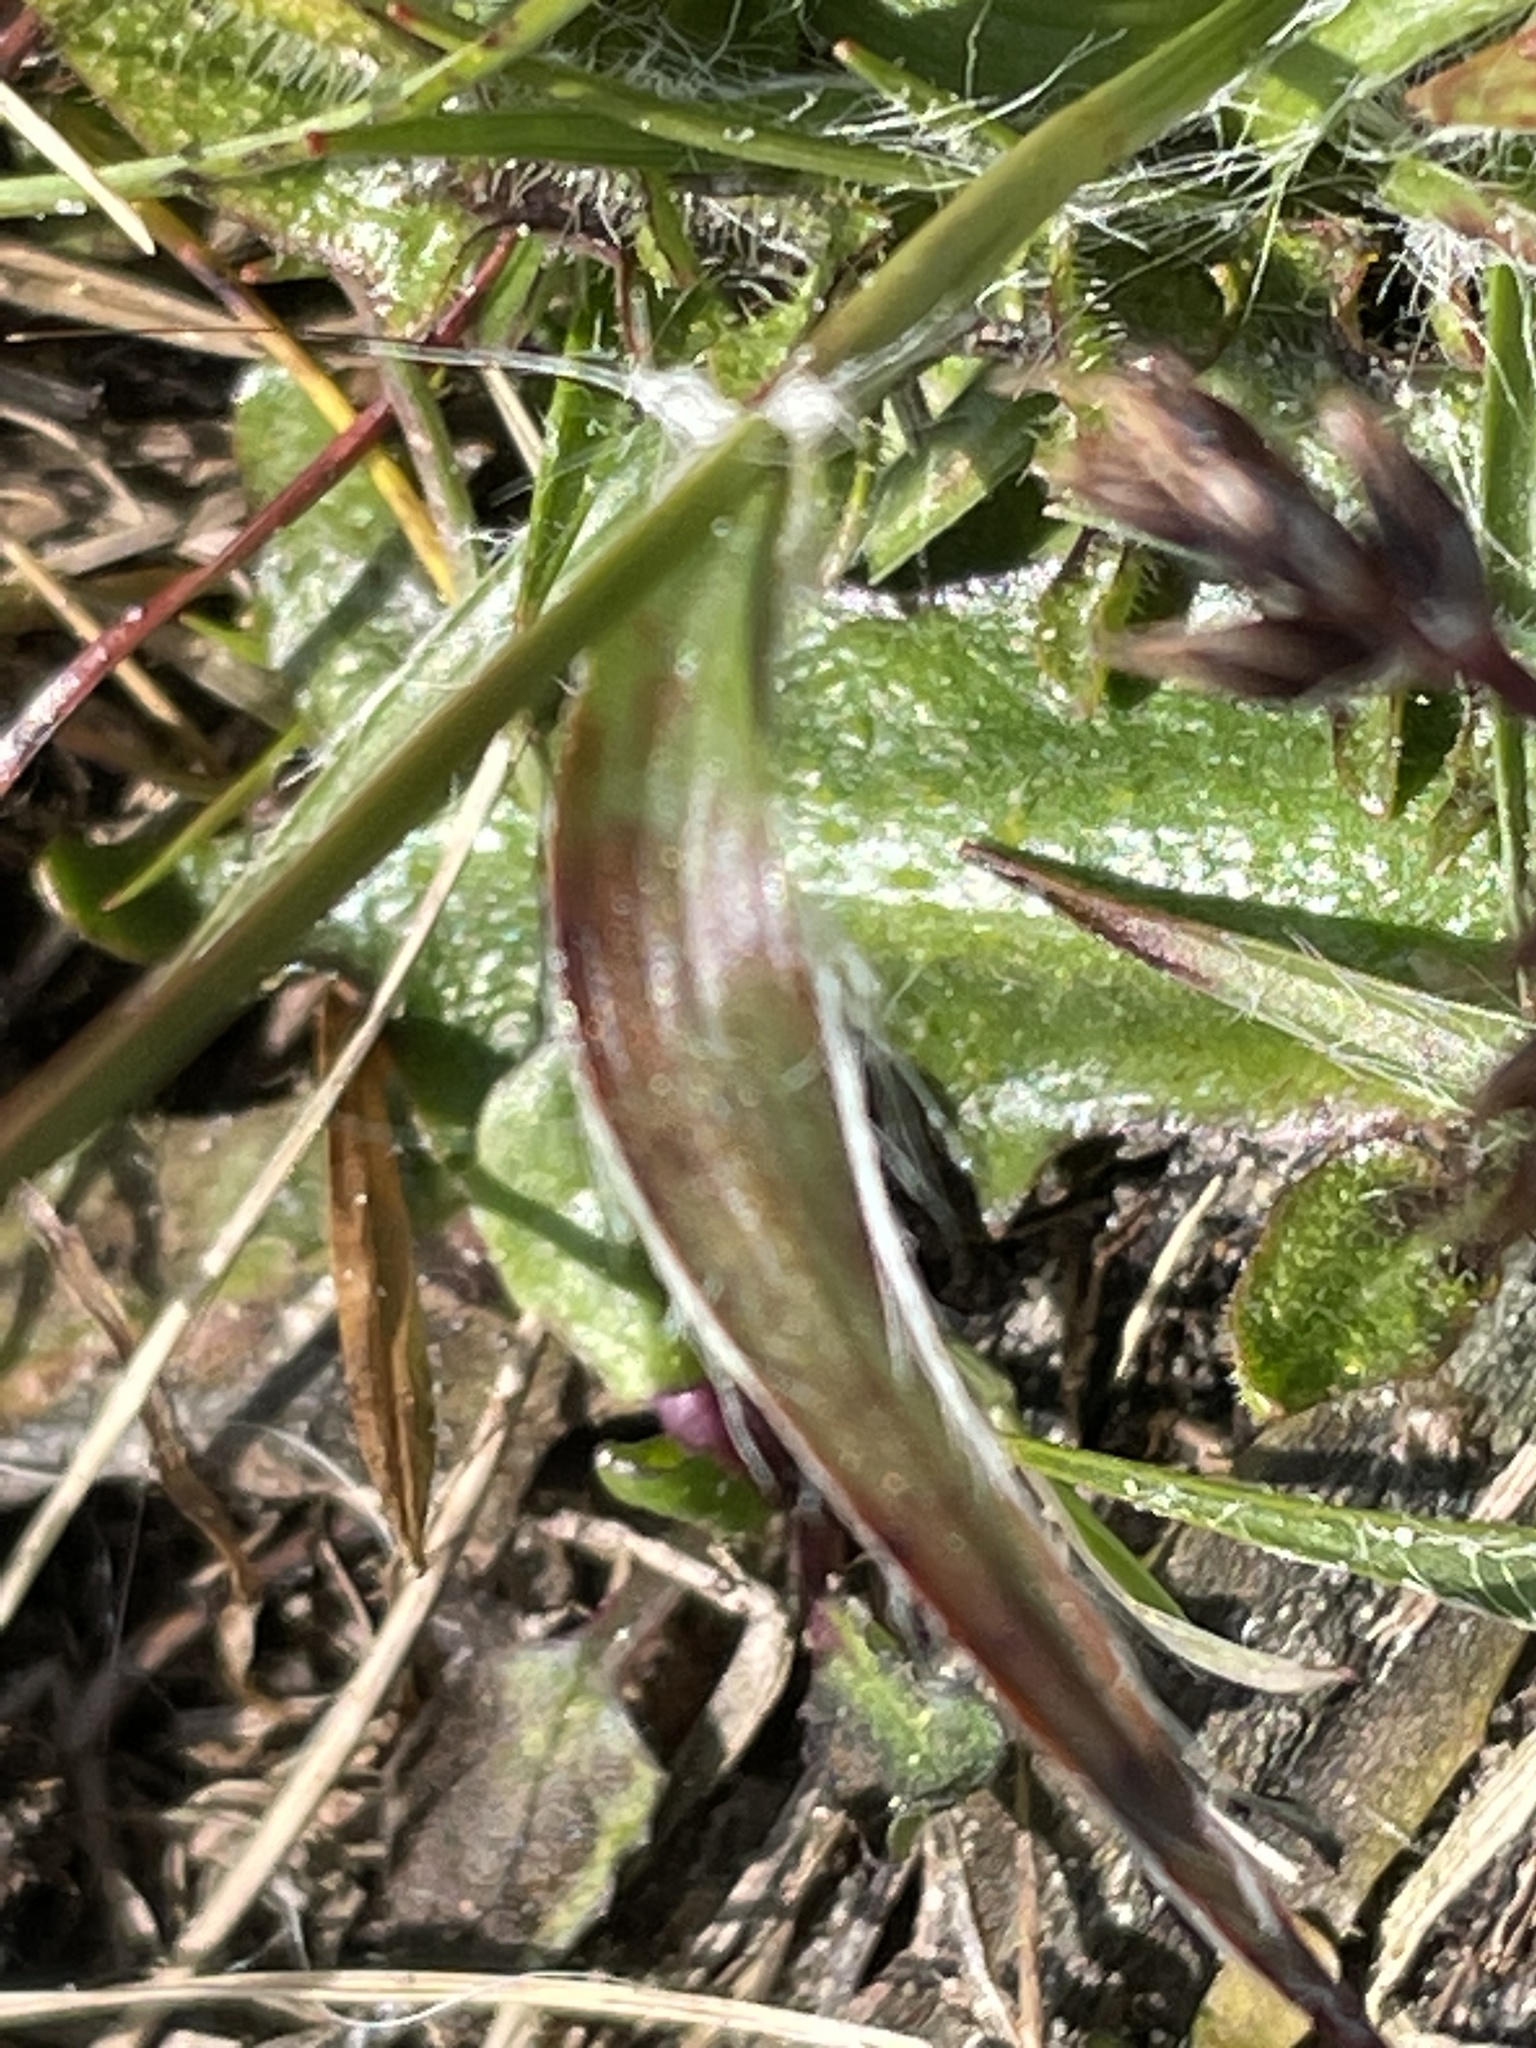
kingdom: Plantae
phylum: Tracheophyta
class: Liliopsida
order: Poales
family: Juncaceae
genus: Luzula
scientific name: Luzula campestris
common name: Field wood-rush
